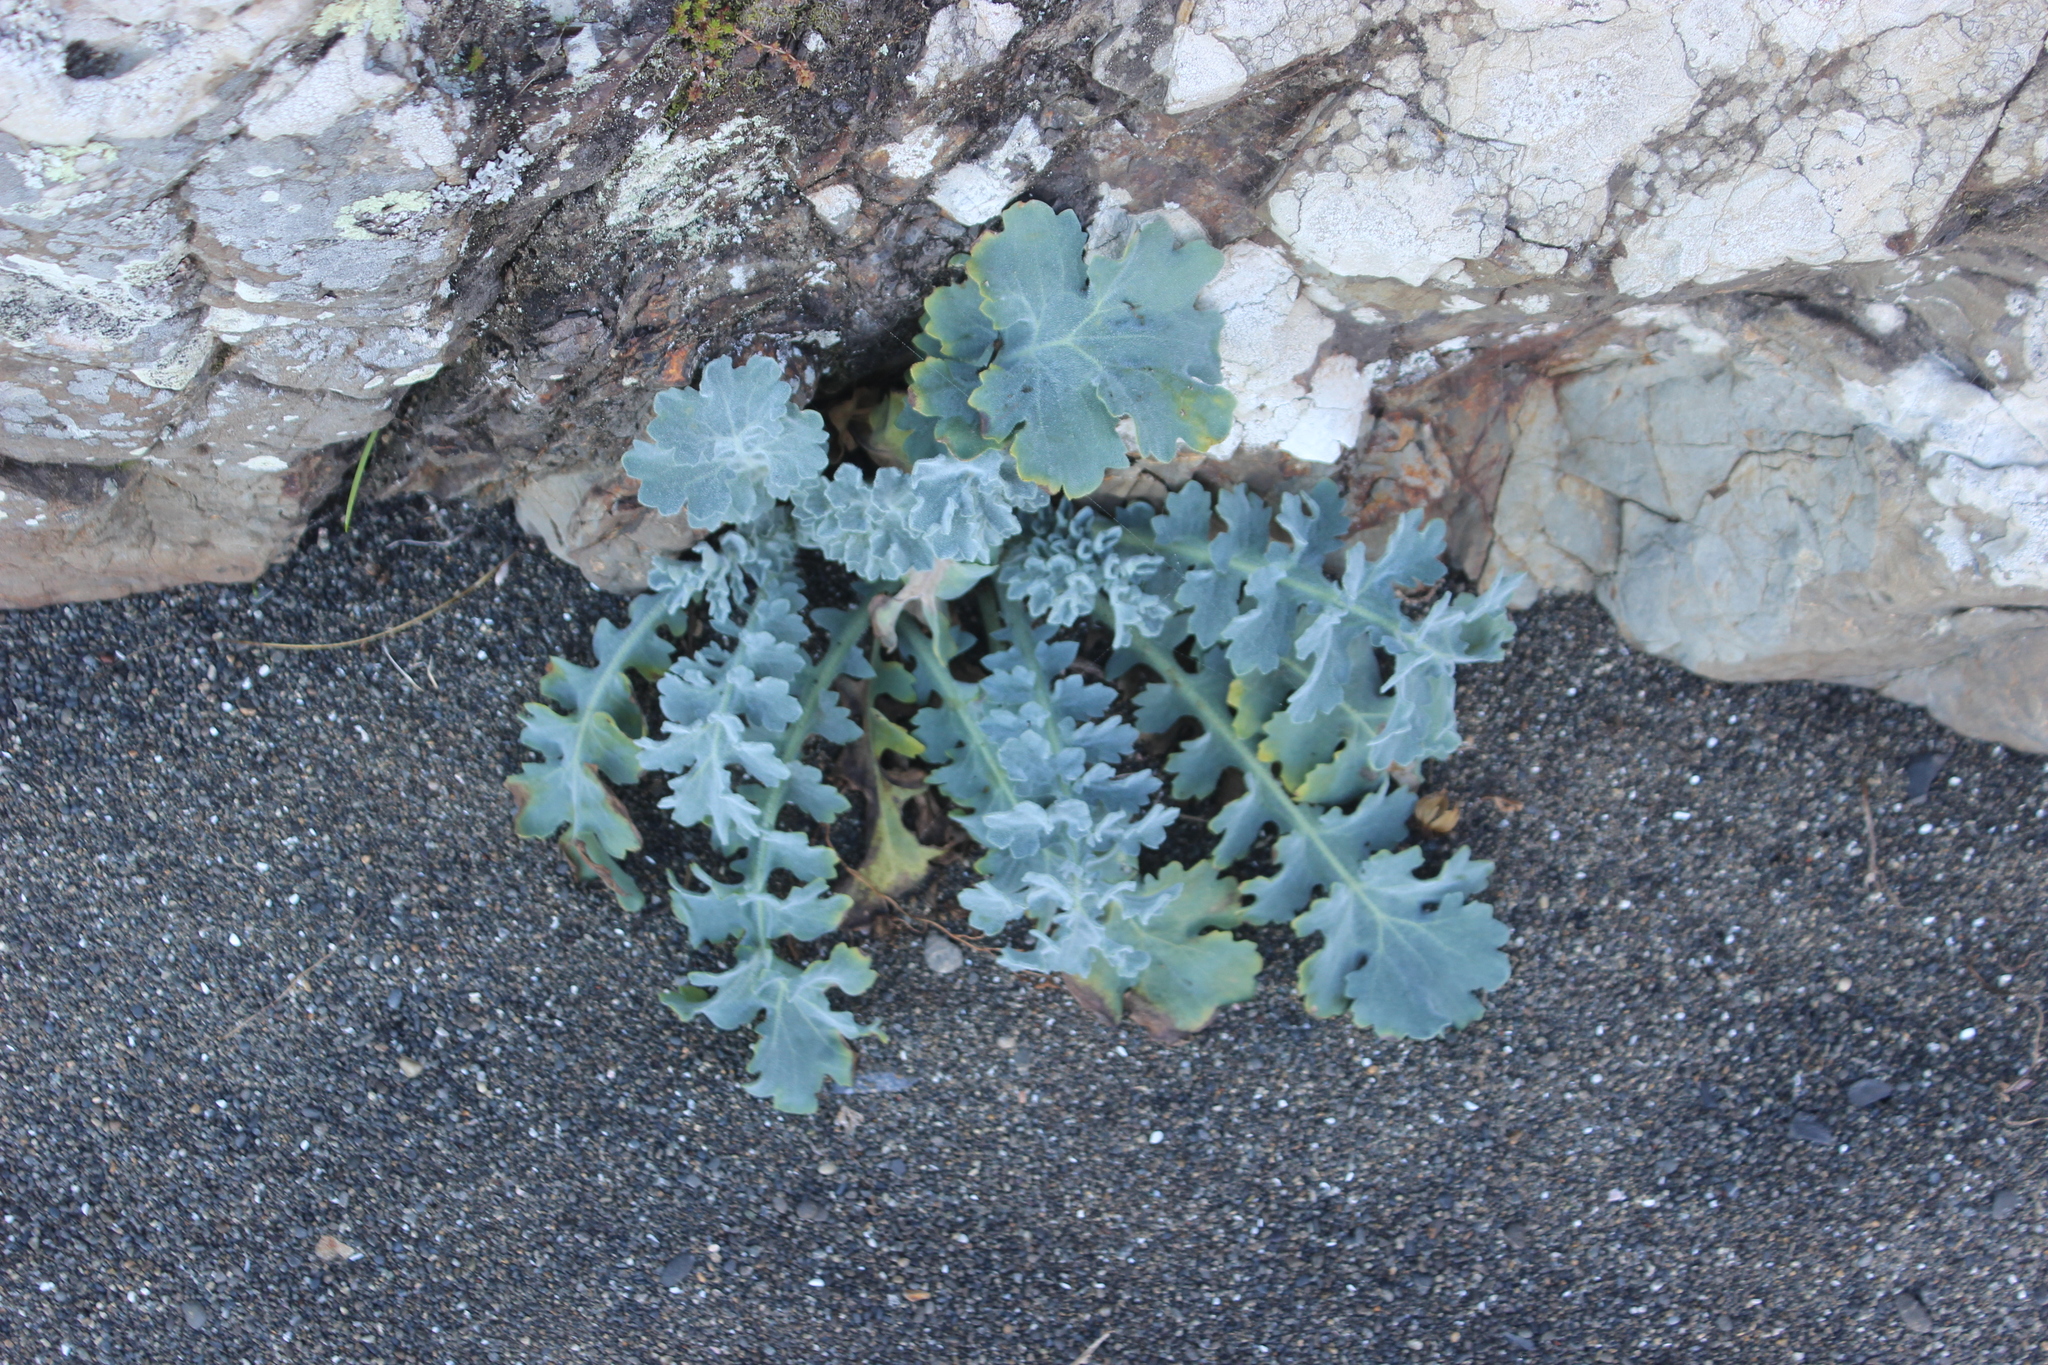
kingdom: Plantae
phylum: Tracheophyta
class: Magnoliopsida
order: Ranunculales
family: Papaveraceae
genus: Glaucium
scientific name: Glaucium flavum
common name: Yellow horned-poppy
